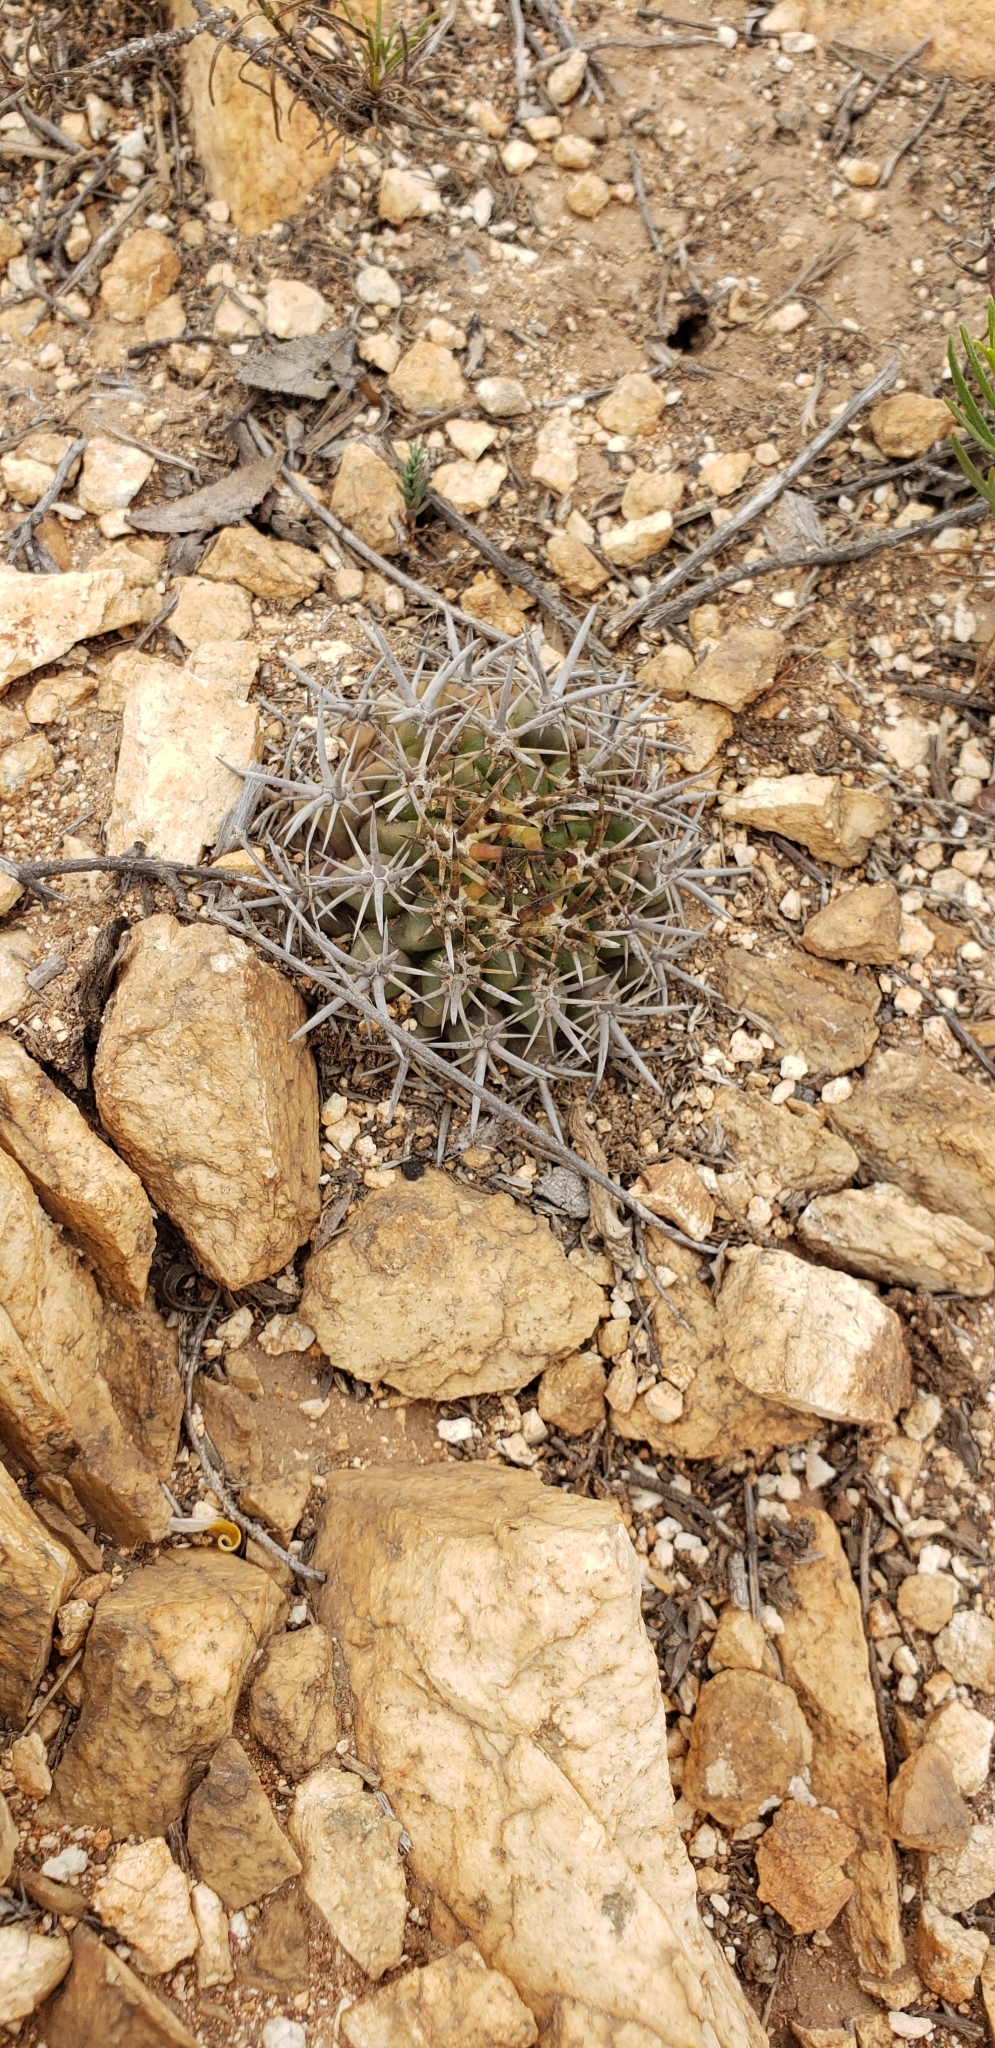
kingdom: Plantae
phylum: Tracheophyta
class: Magnoliopsida
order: Caryophyllales
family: Cactaceae
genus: Eriosyce
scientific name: Eriosyce
